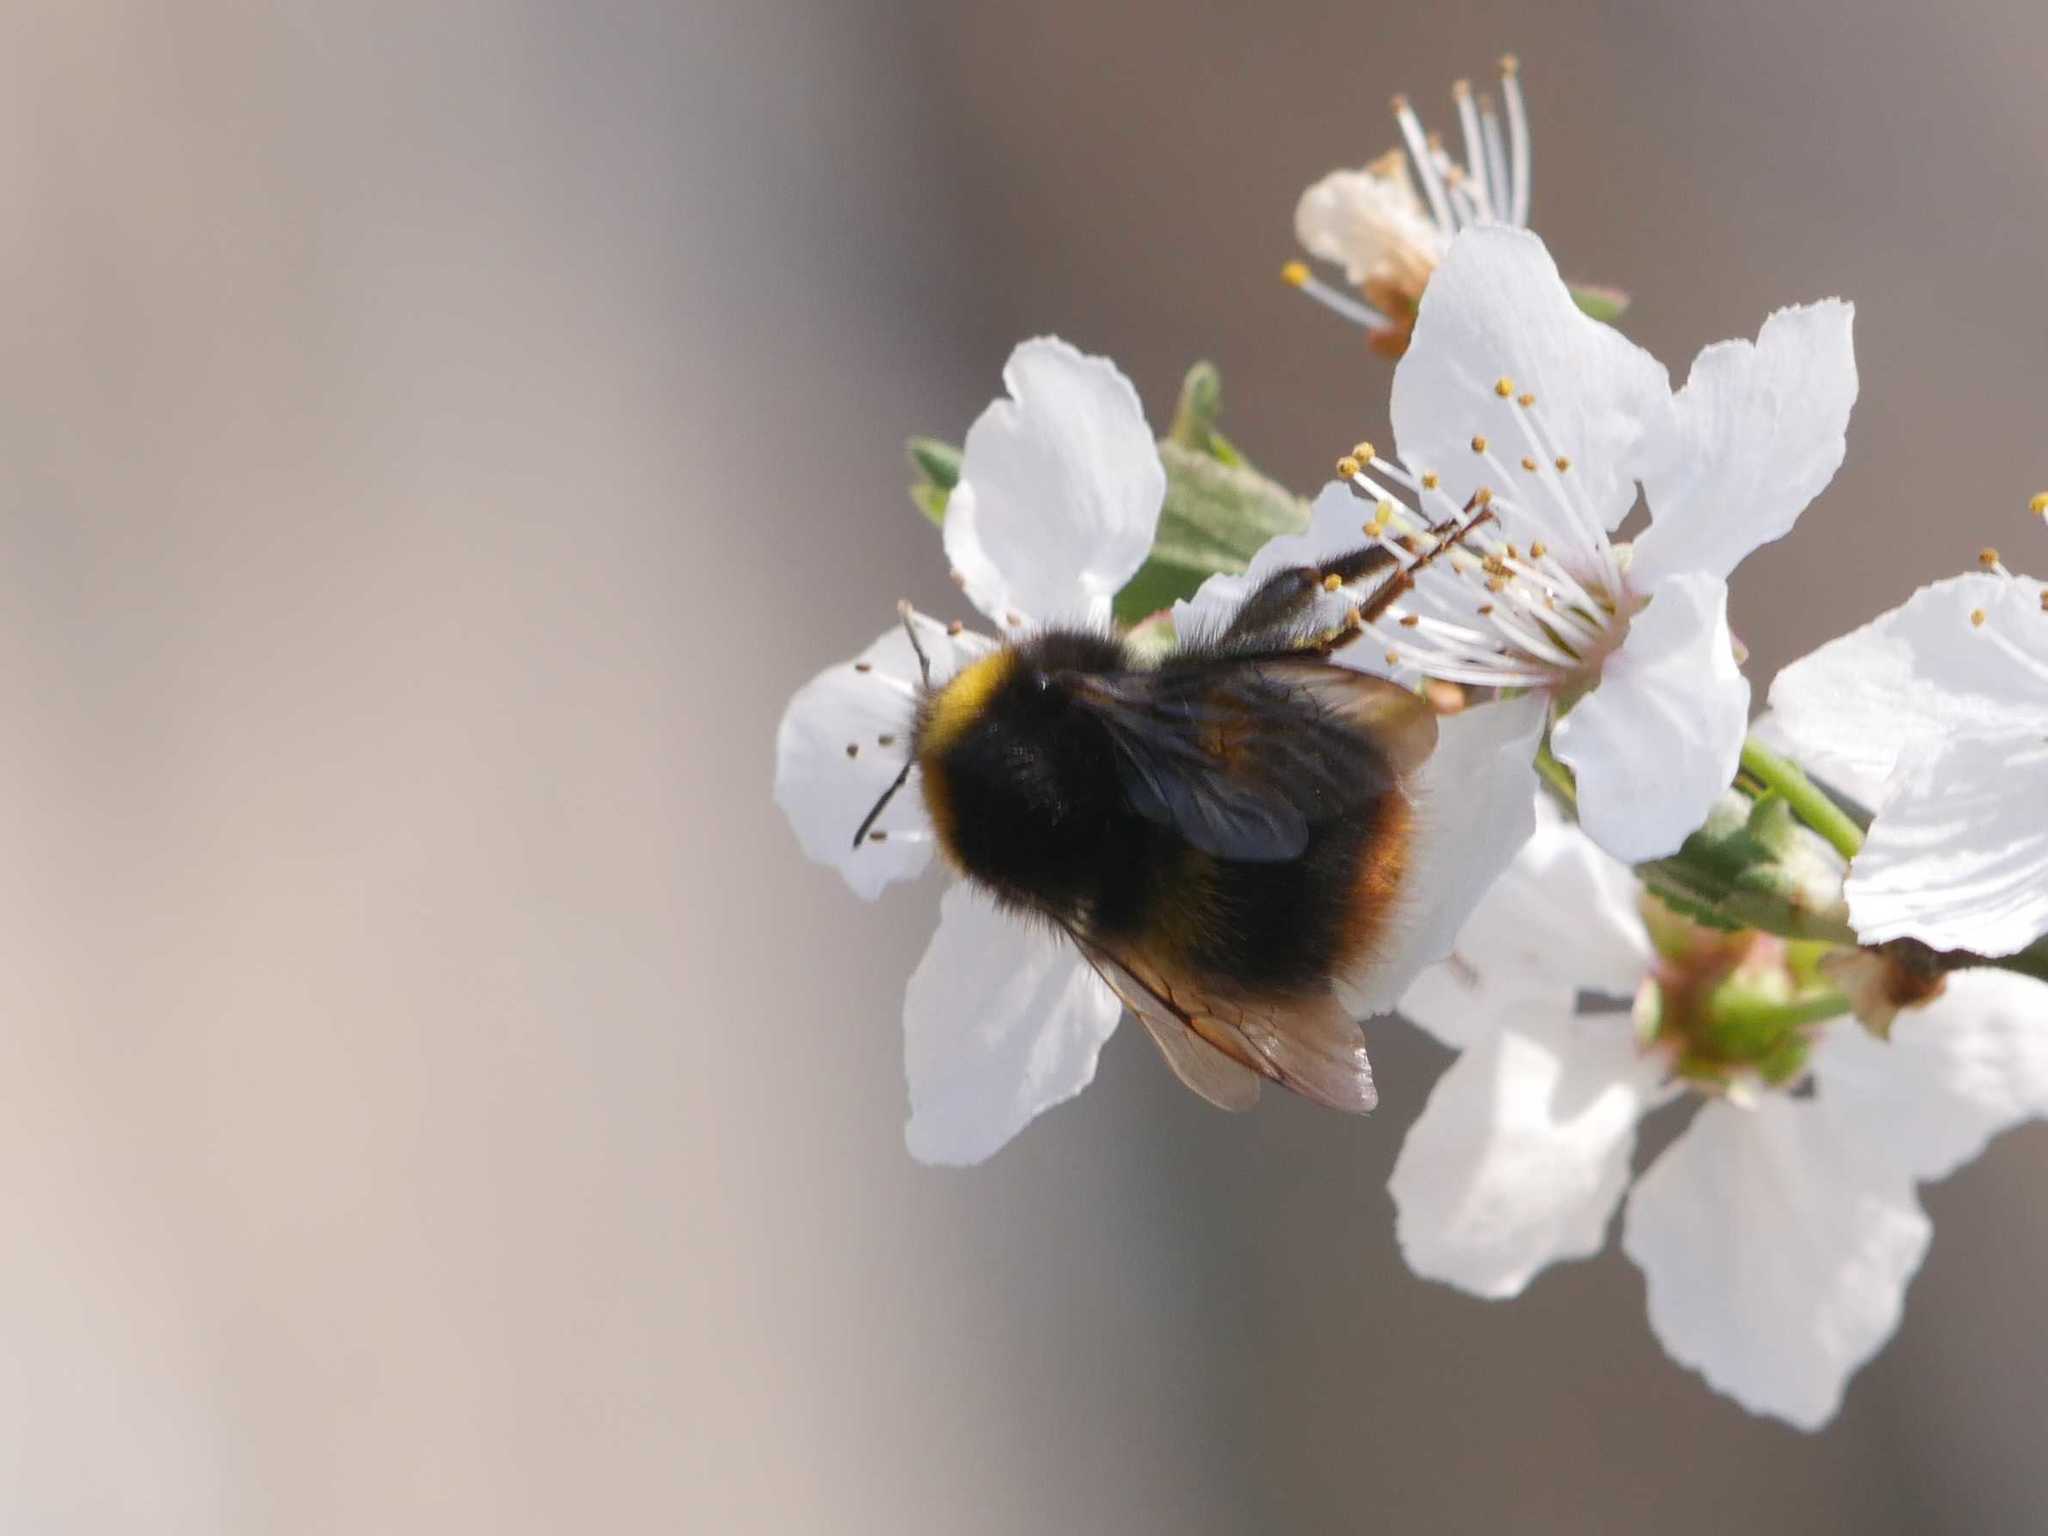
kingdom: Animalia
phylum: Arthropoda
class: Insecta
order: Hymenoptera
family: Apidae
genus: Bombus
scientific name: Bombus pratorum
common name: Early humble-bee
